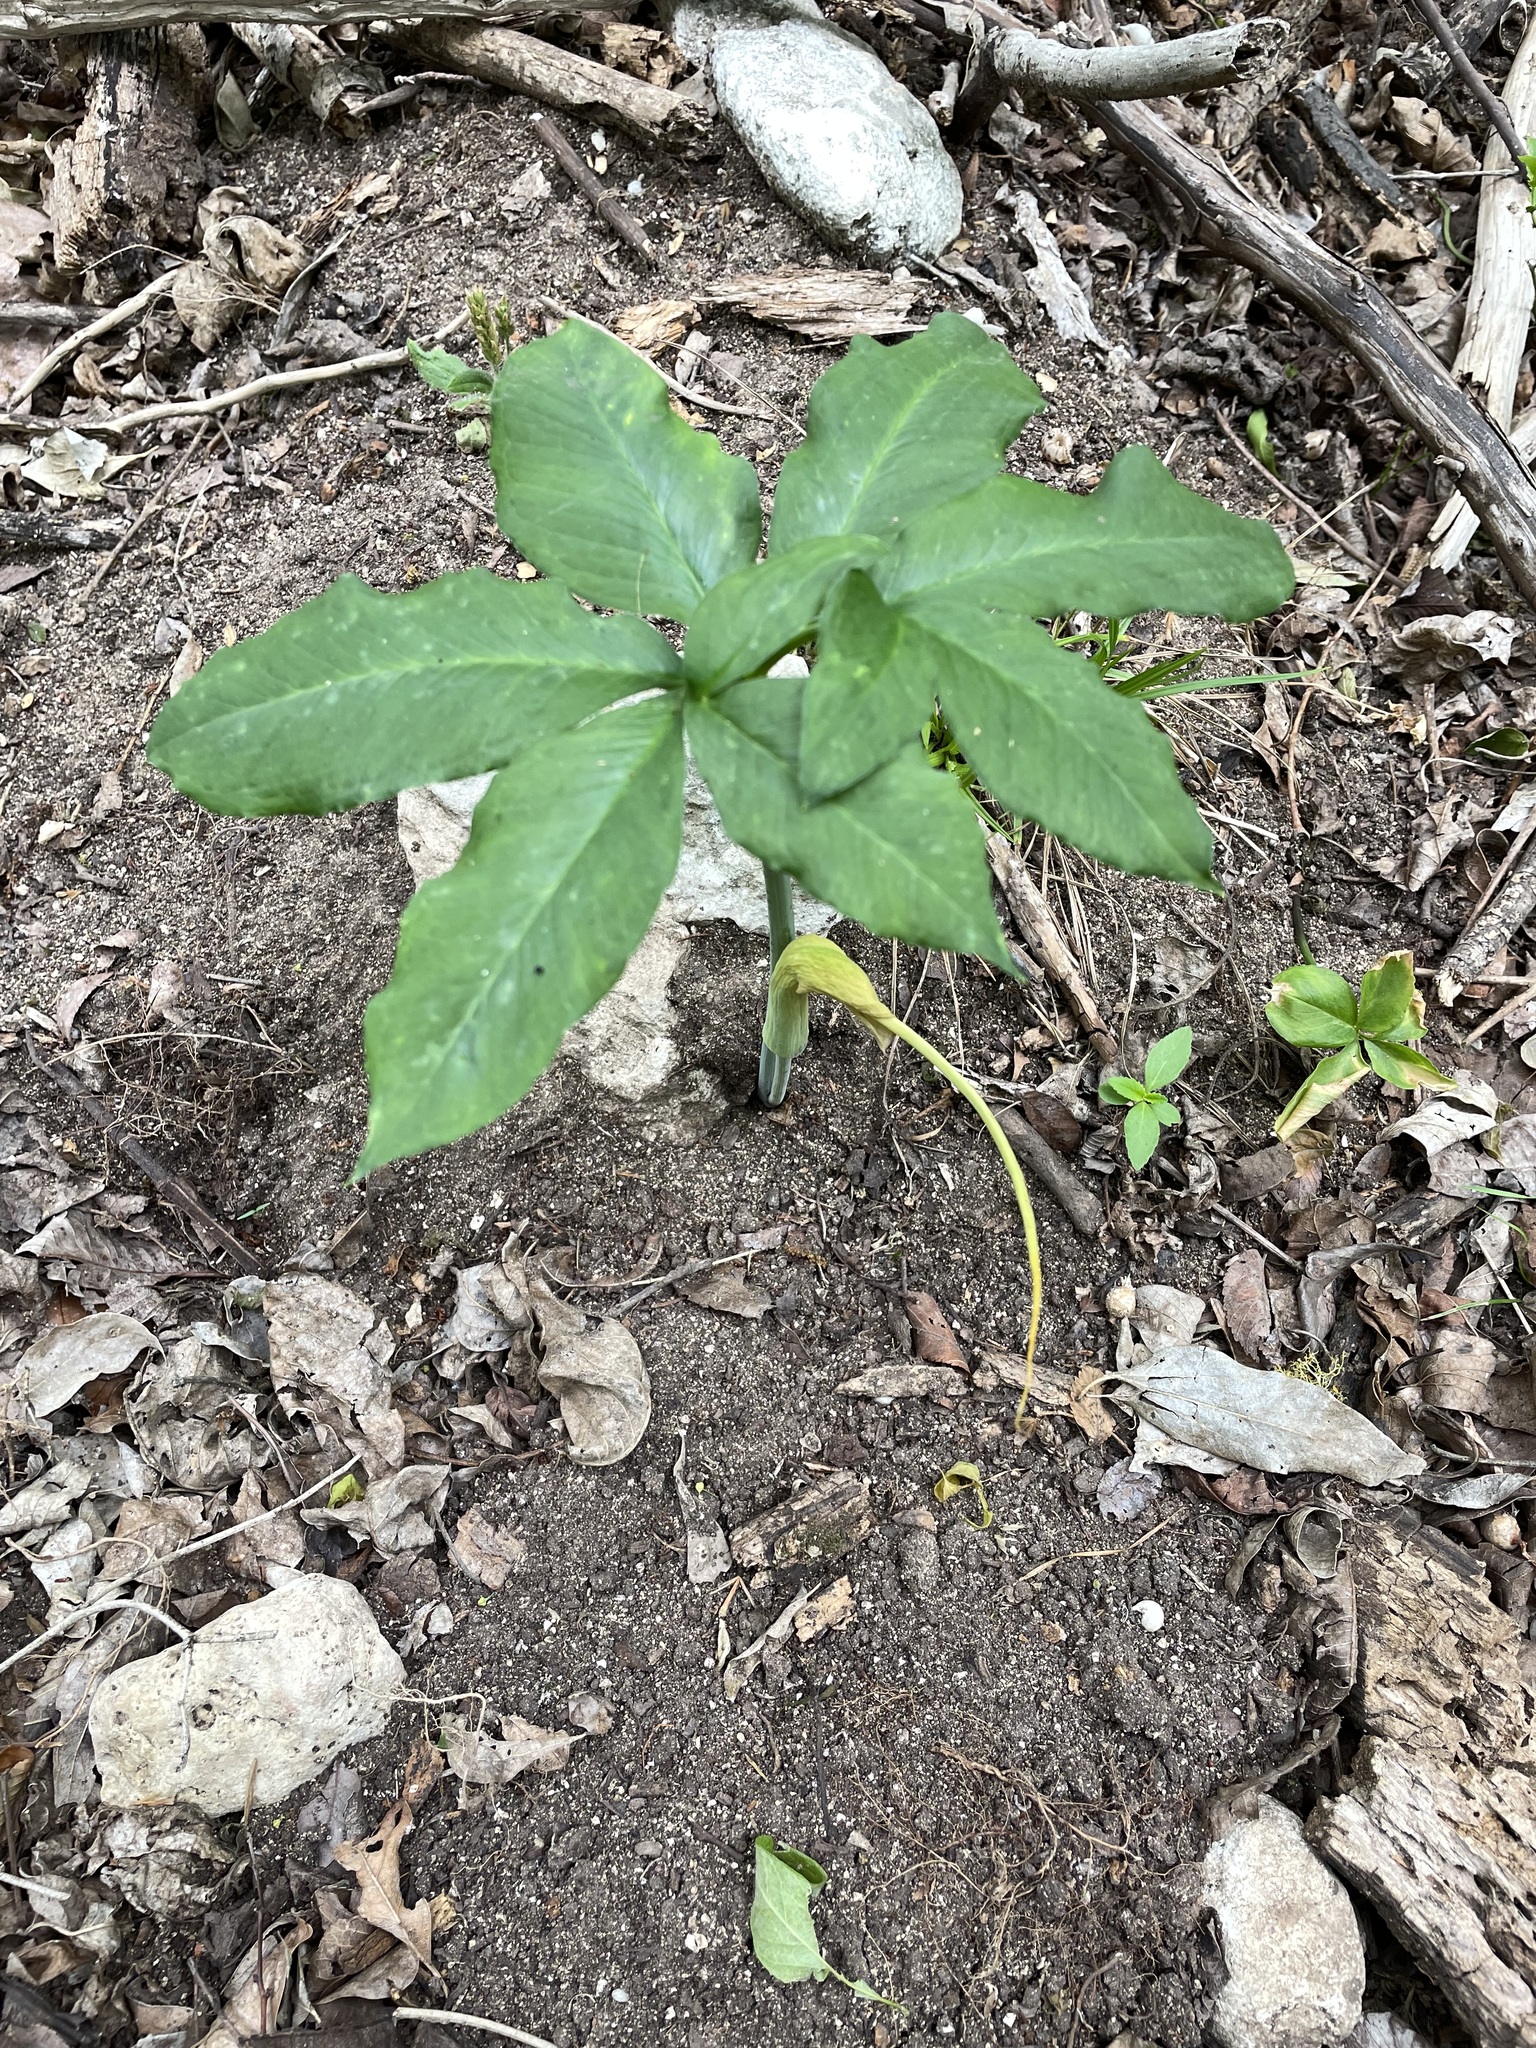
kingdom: Plantae
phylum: Tracheophyta
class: Liliopsida
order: Alismatales
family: Araceae
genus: Arisaema
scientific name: Arisaema dracontium
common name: Dragon-arum
